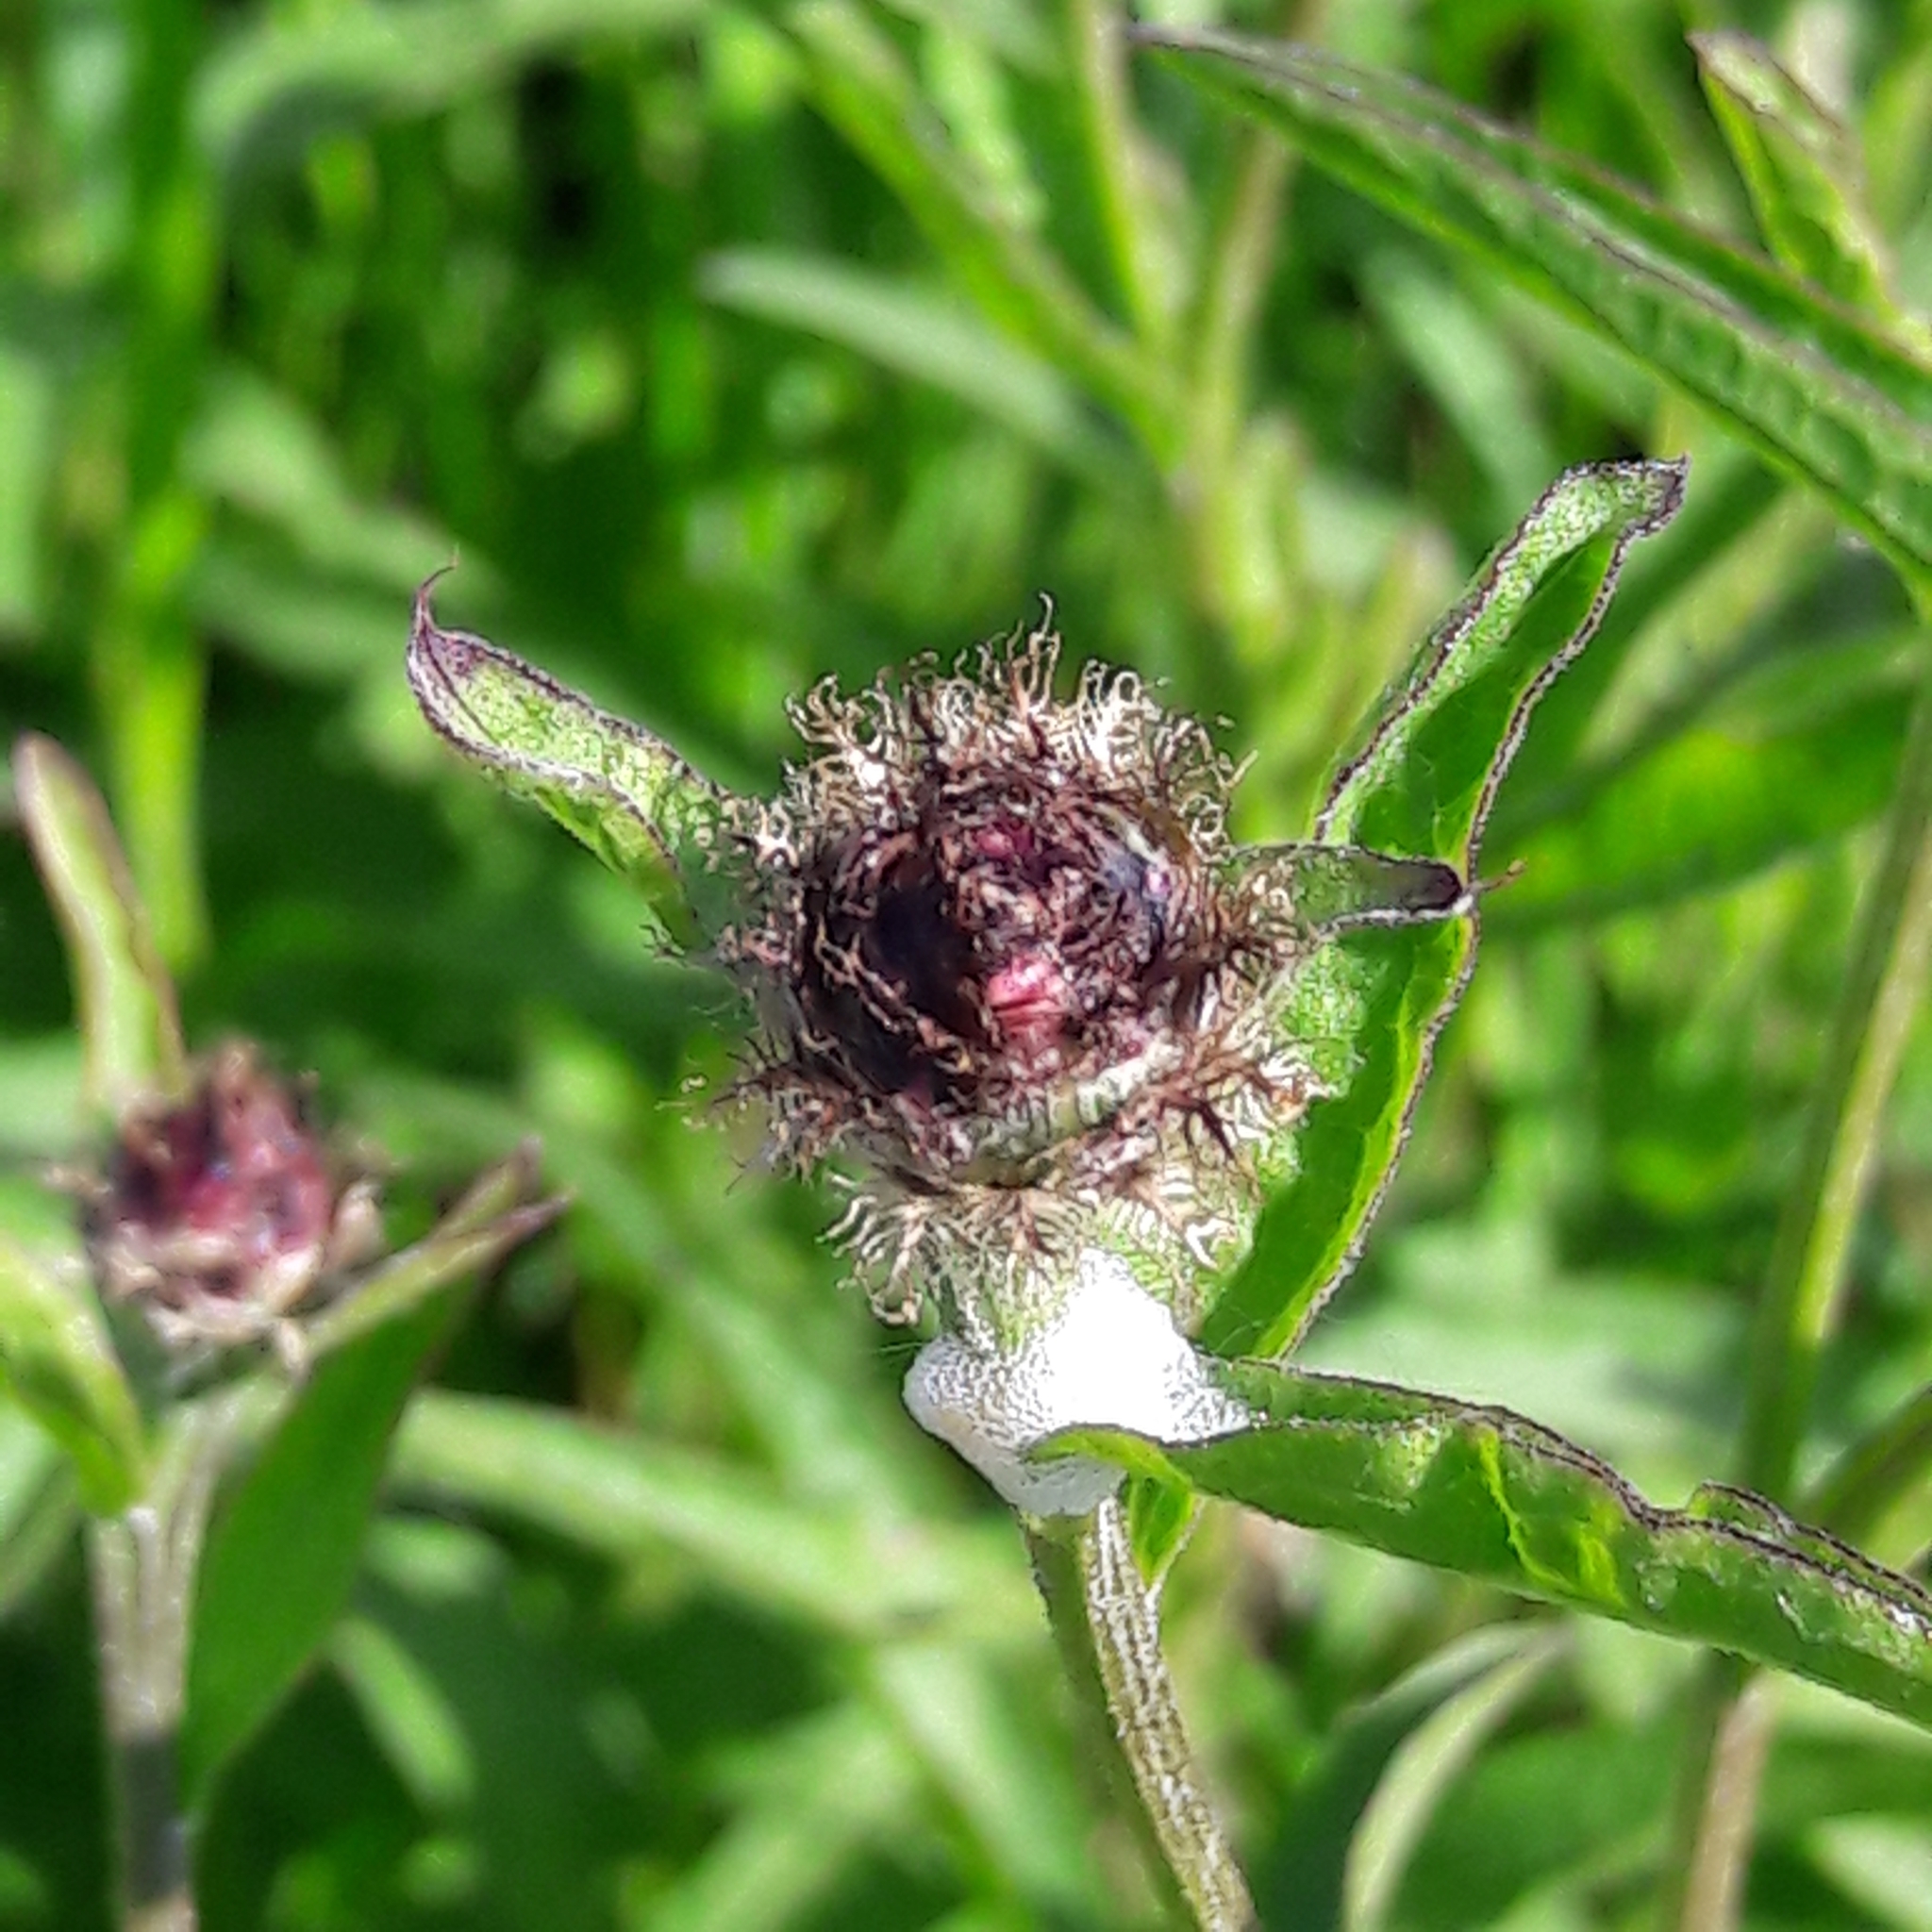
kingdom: Plantae
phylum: Tracheophyta
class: Magnoliopsida
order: Asterales
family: Asteraceae
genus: Centaurea
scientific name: Centaurea nigra
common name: Lesser knapweed
